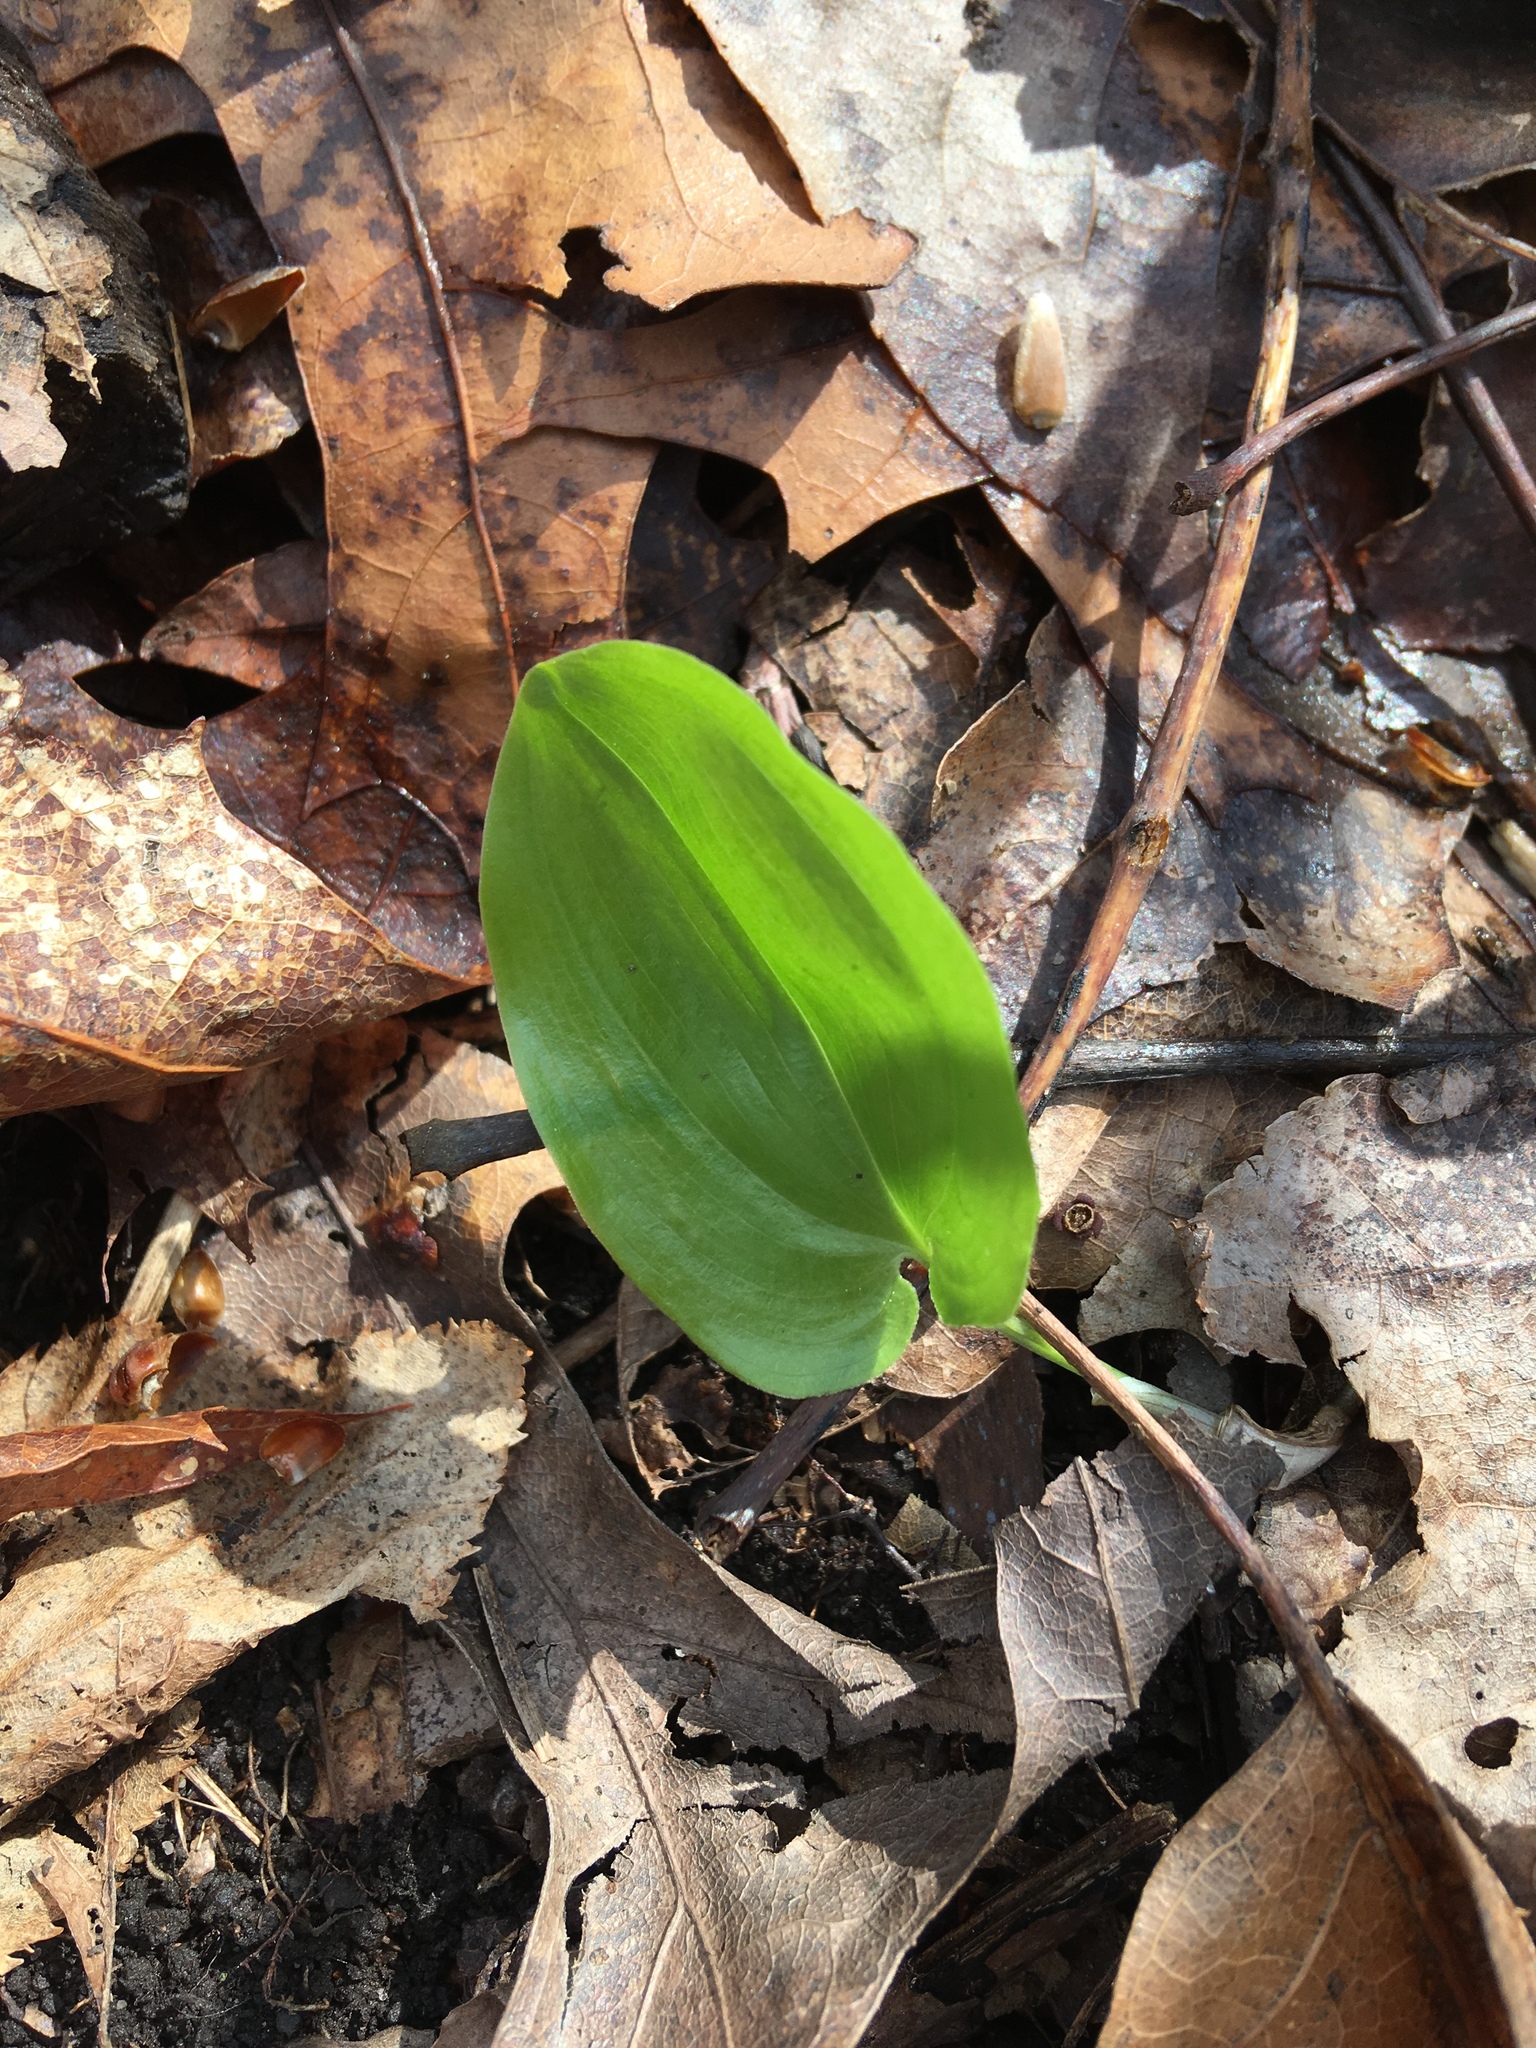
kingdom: Plantae
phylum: Tracheophyta
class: Liliopsida
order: Asparagales
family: Asparagaceae
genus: Maianthemum
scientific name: Maianthemum canadense
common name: False lily-of-the-valley
